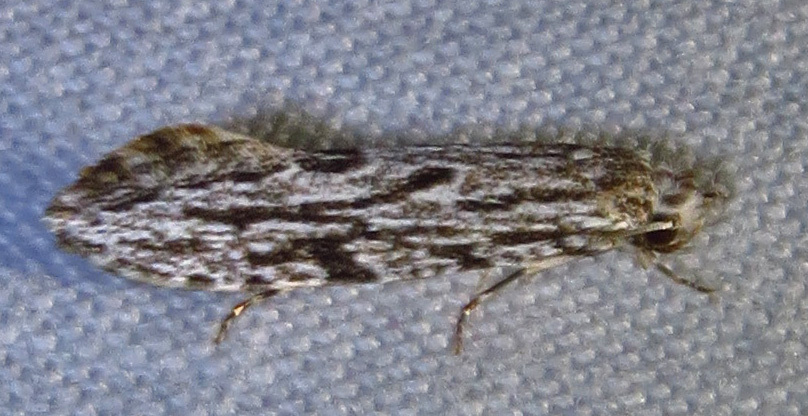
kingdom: Animalia
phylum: Arthropoda
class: Insecta
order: Lepidoptera
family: Tineidae
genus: Nemapogon
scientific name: Nemapogon multistriatella
